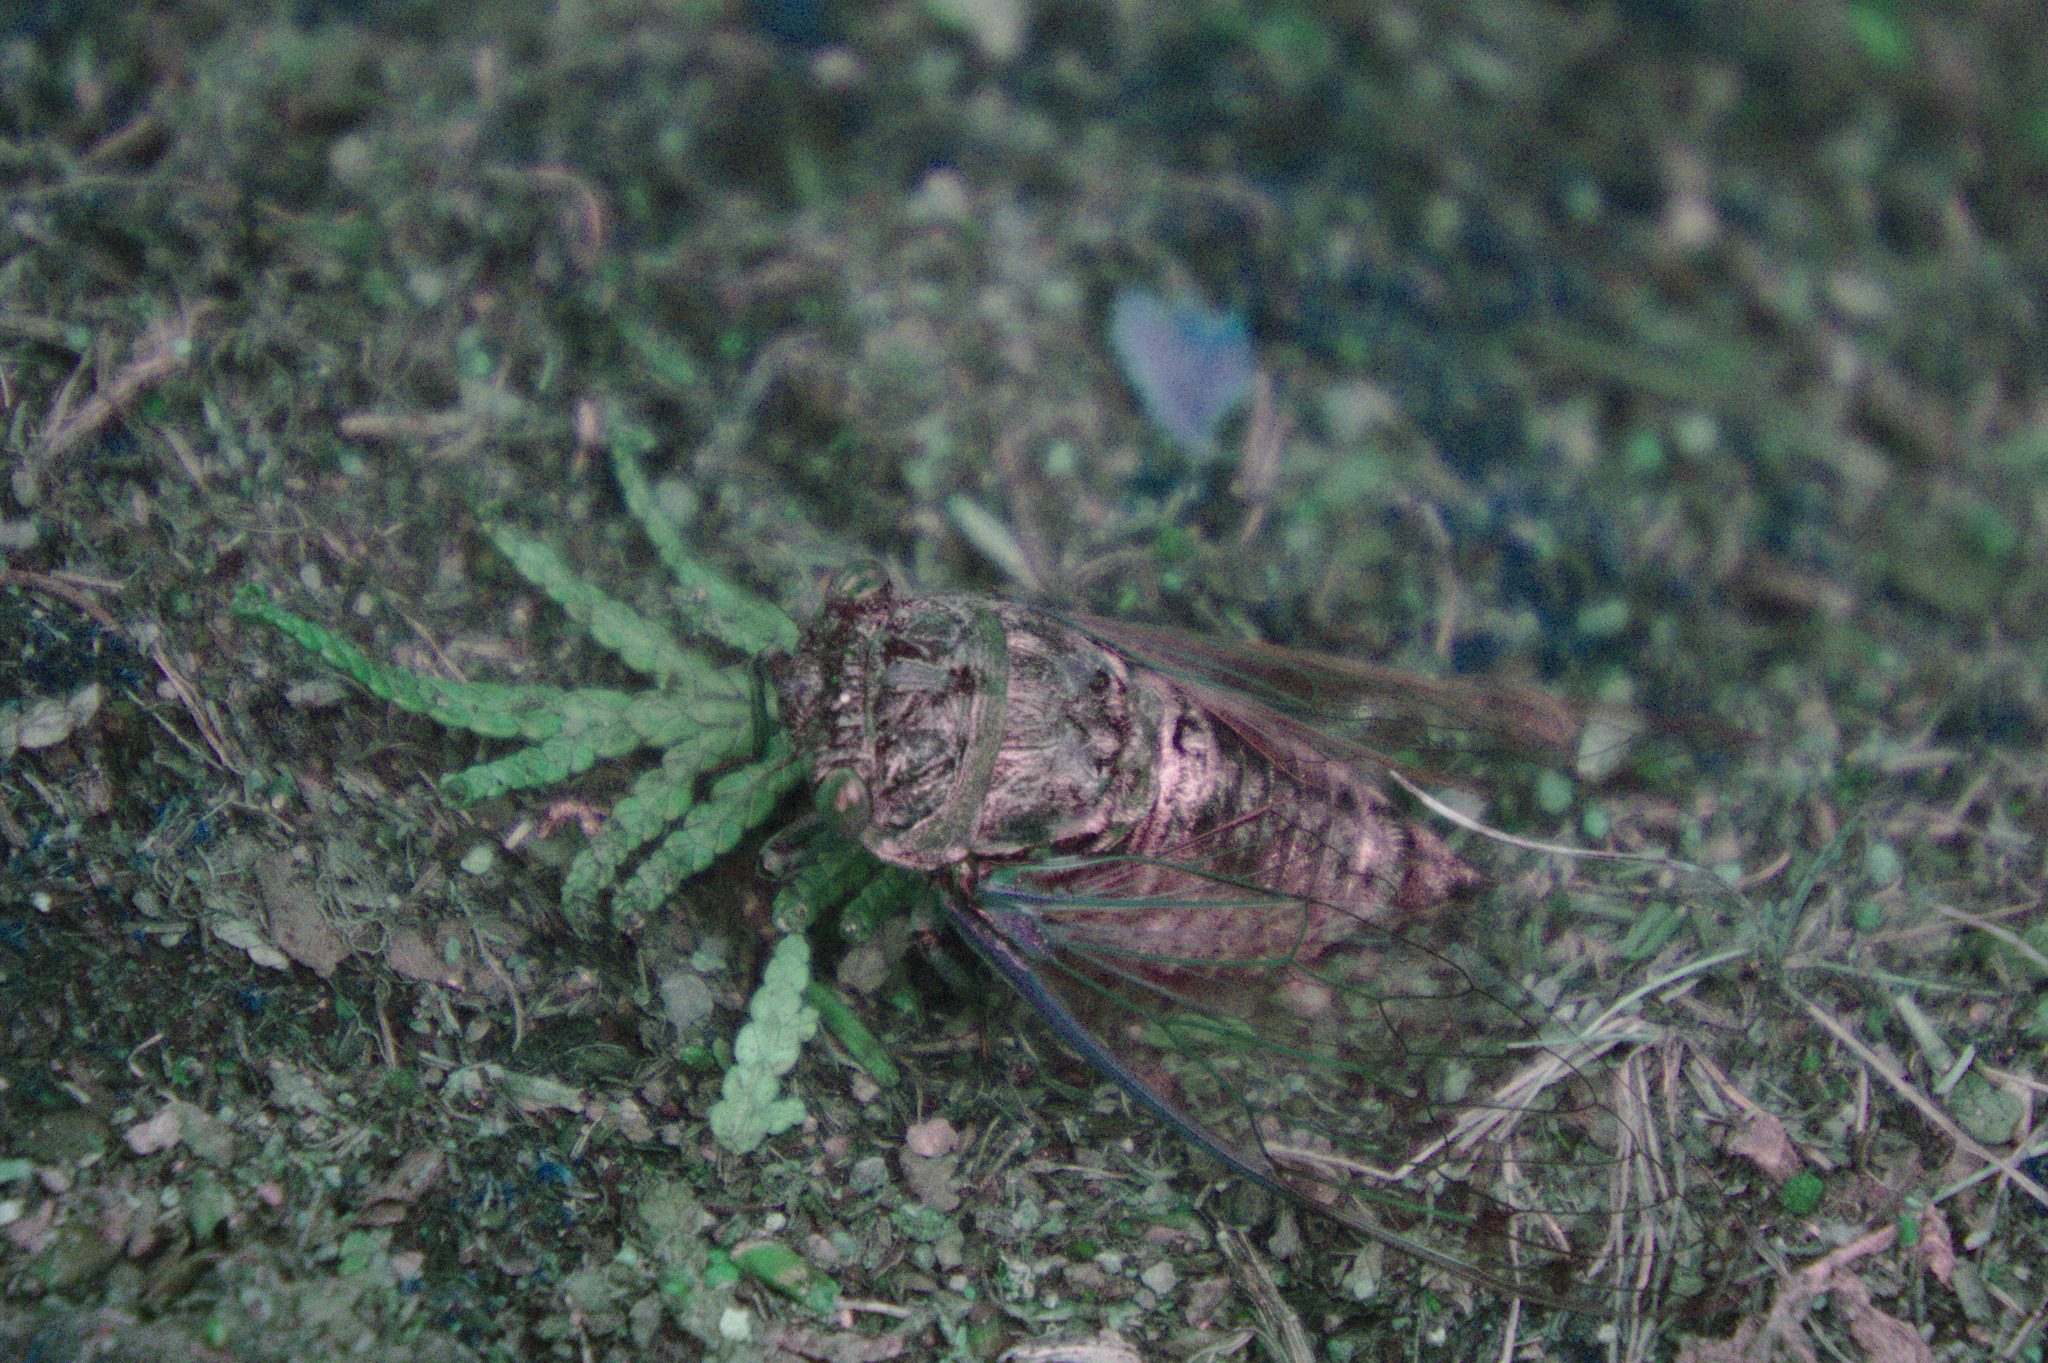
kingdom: Animalia
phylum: Arthropoda
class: Insecta
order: Hemiptera
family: Cicadidae
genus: Neotibicen
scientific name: Neotibicen canicularis
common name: God-day cicada
